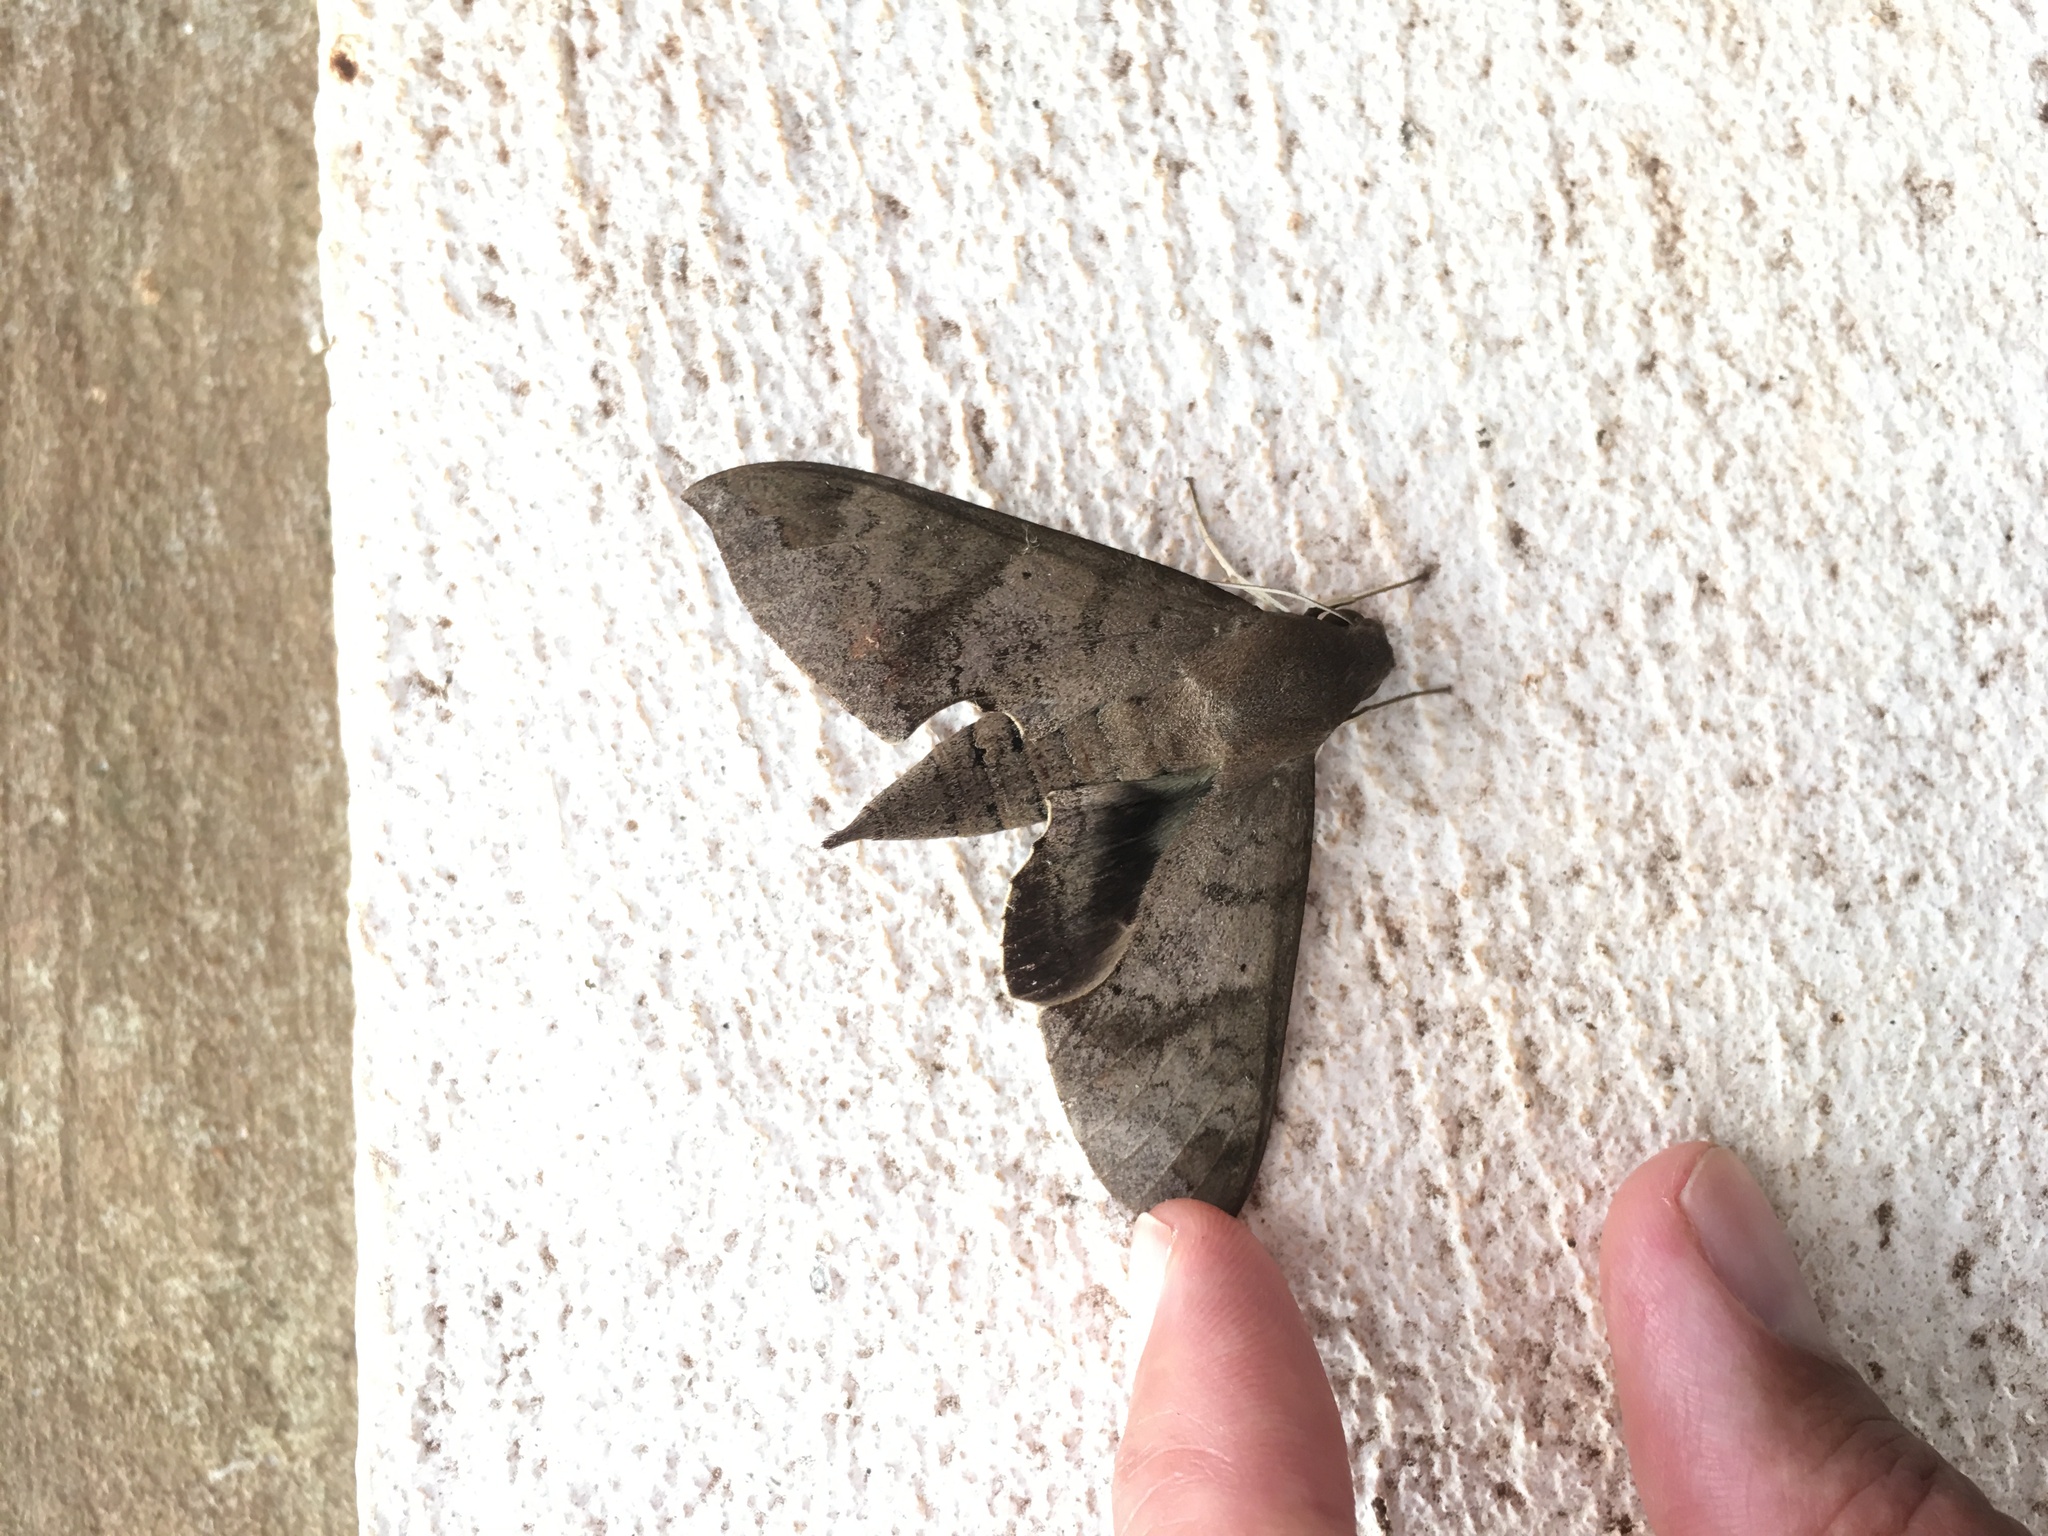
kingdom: Animalia
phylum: Arthropoda
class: Insecta
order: Lepidoptera
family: Sphingidae
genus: Pachylioides
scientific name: Pachylioides resumens
